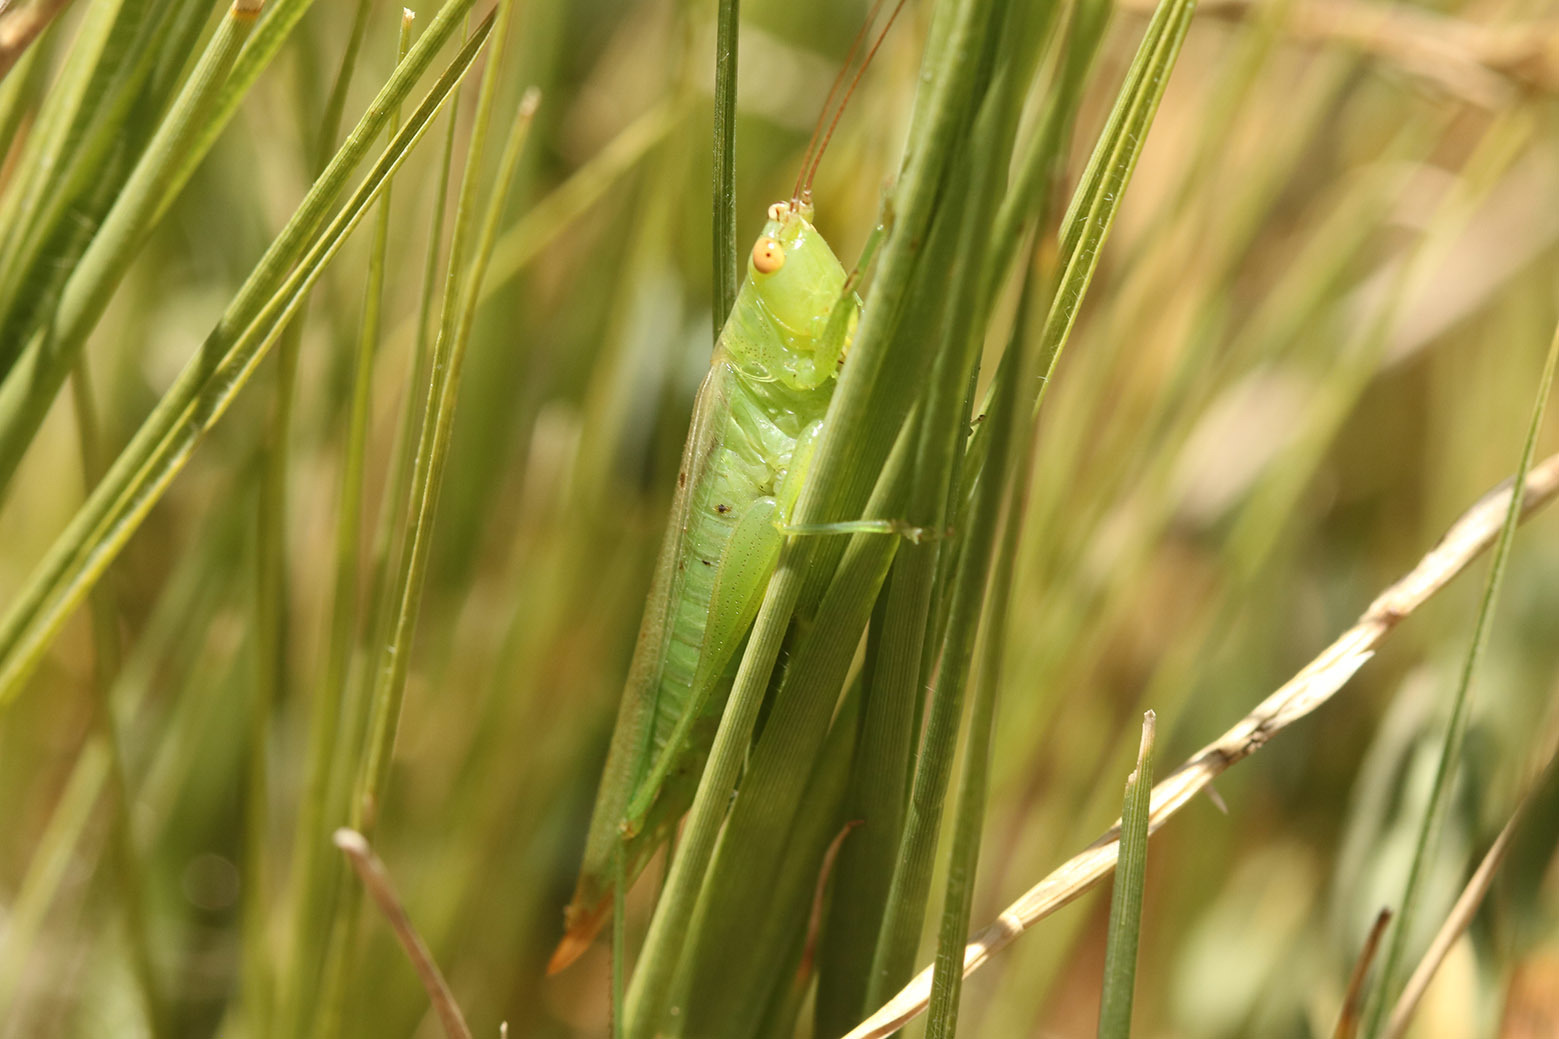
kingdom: Animalia
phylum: Arthropoda
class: Insecta
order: Orthoptera
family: Tettigoniidae
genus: Conocephalus
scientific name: Conocephalus longipes
